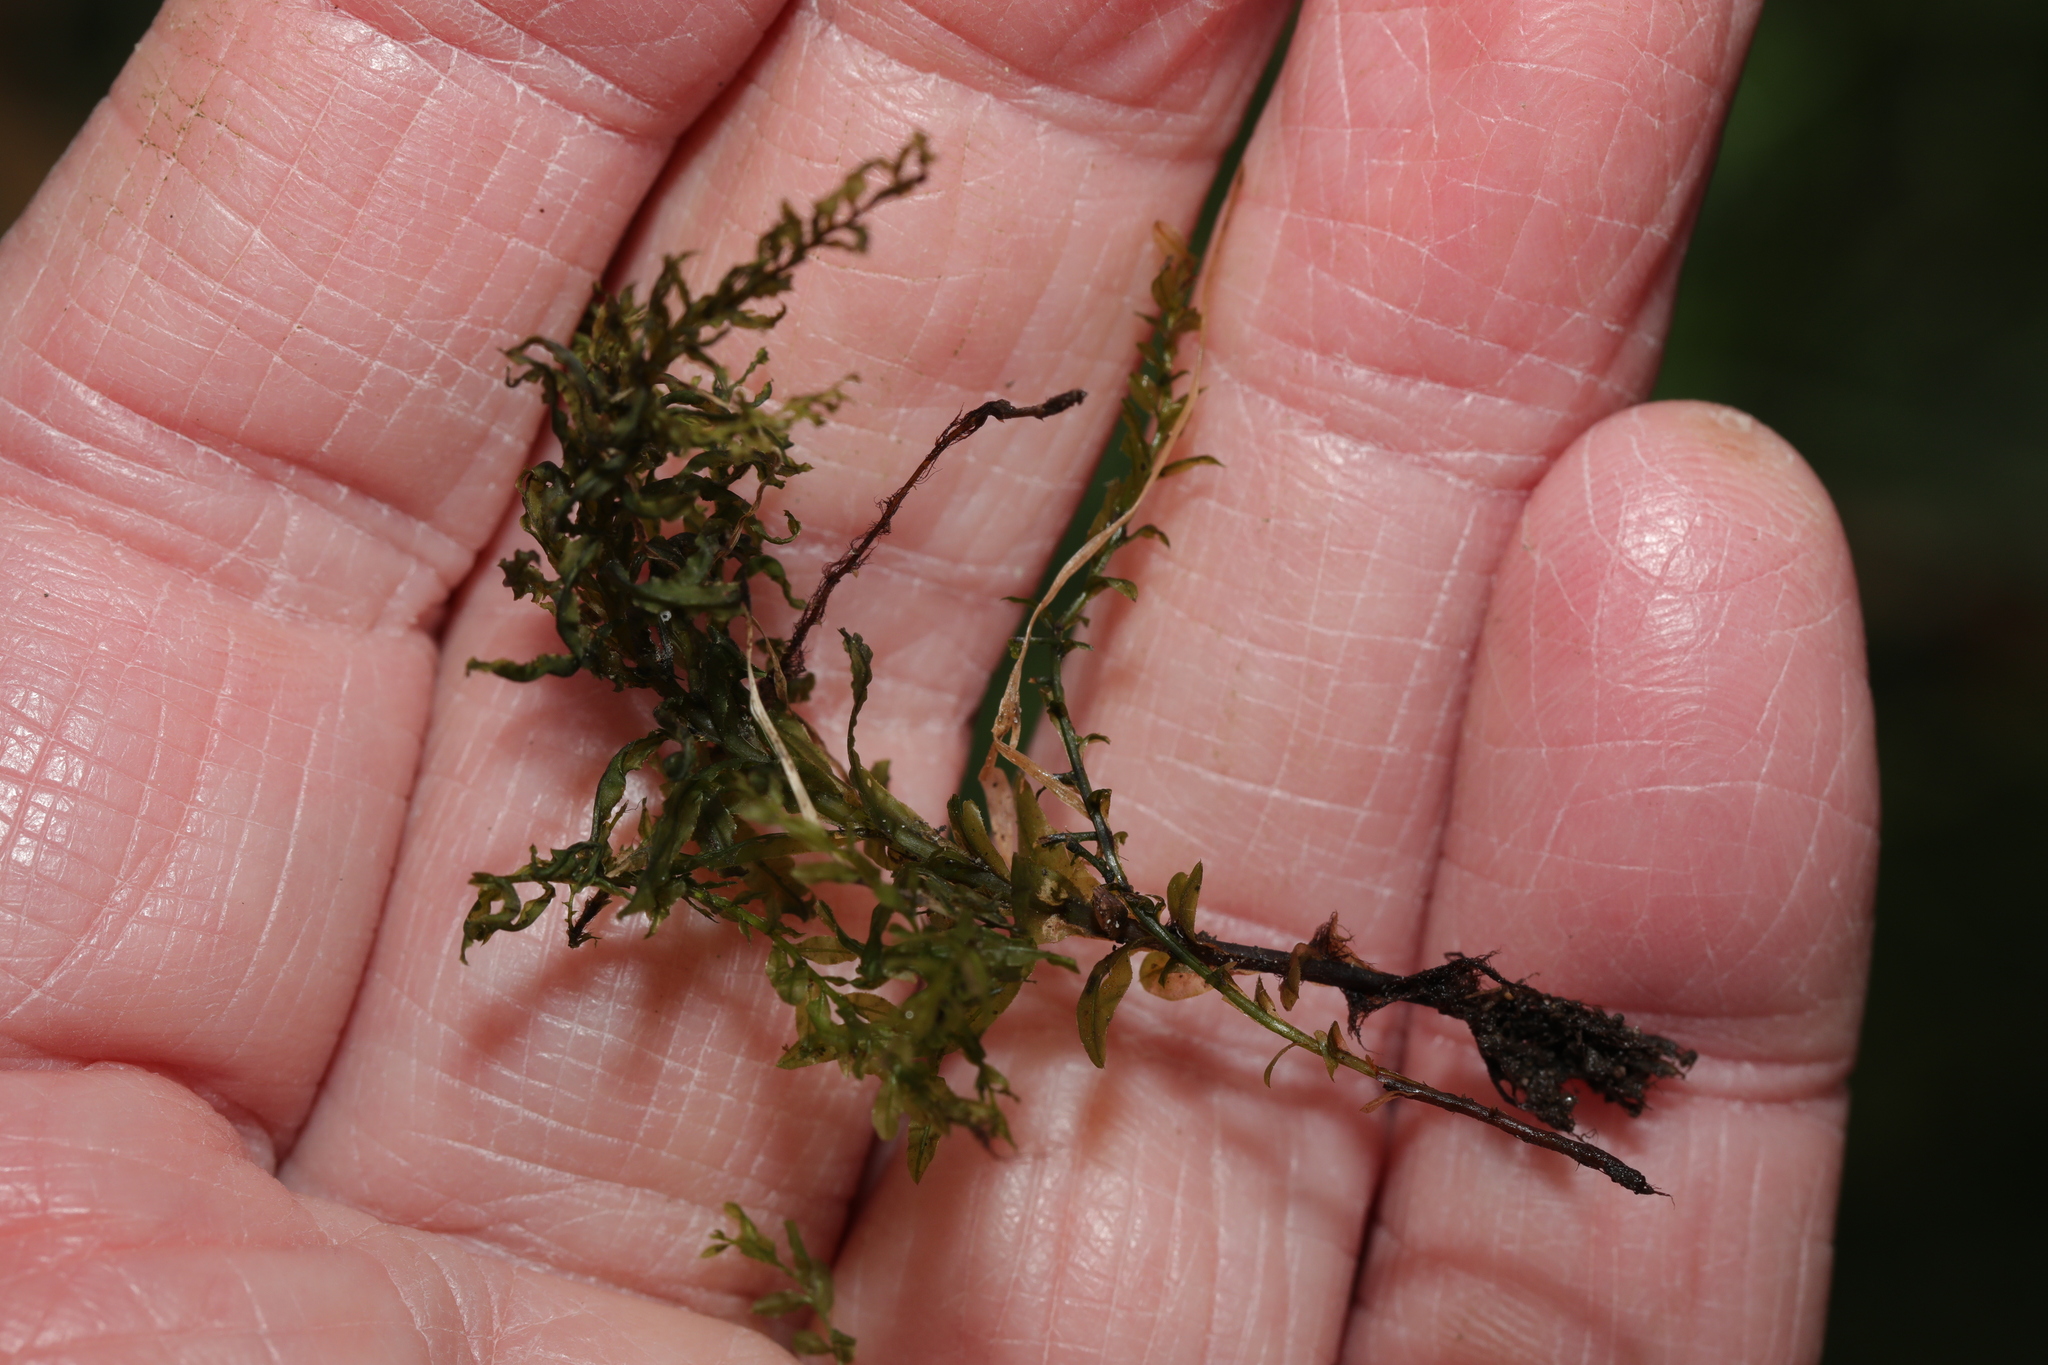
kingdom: Plantae
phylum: Bryophyta
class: Bryopsida
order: Bryales
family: Mniaceae
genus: Plagiomnium
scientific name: Plagiomnium undulatum
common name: Hart's-tongue thyme-moss
